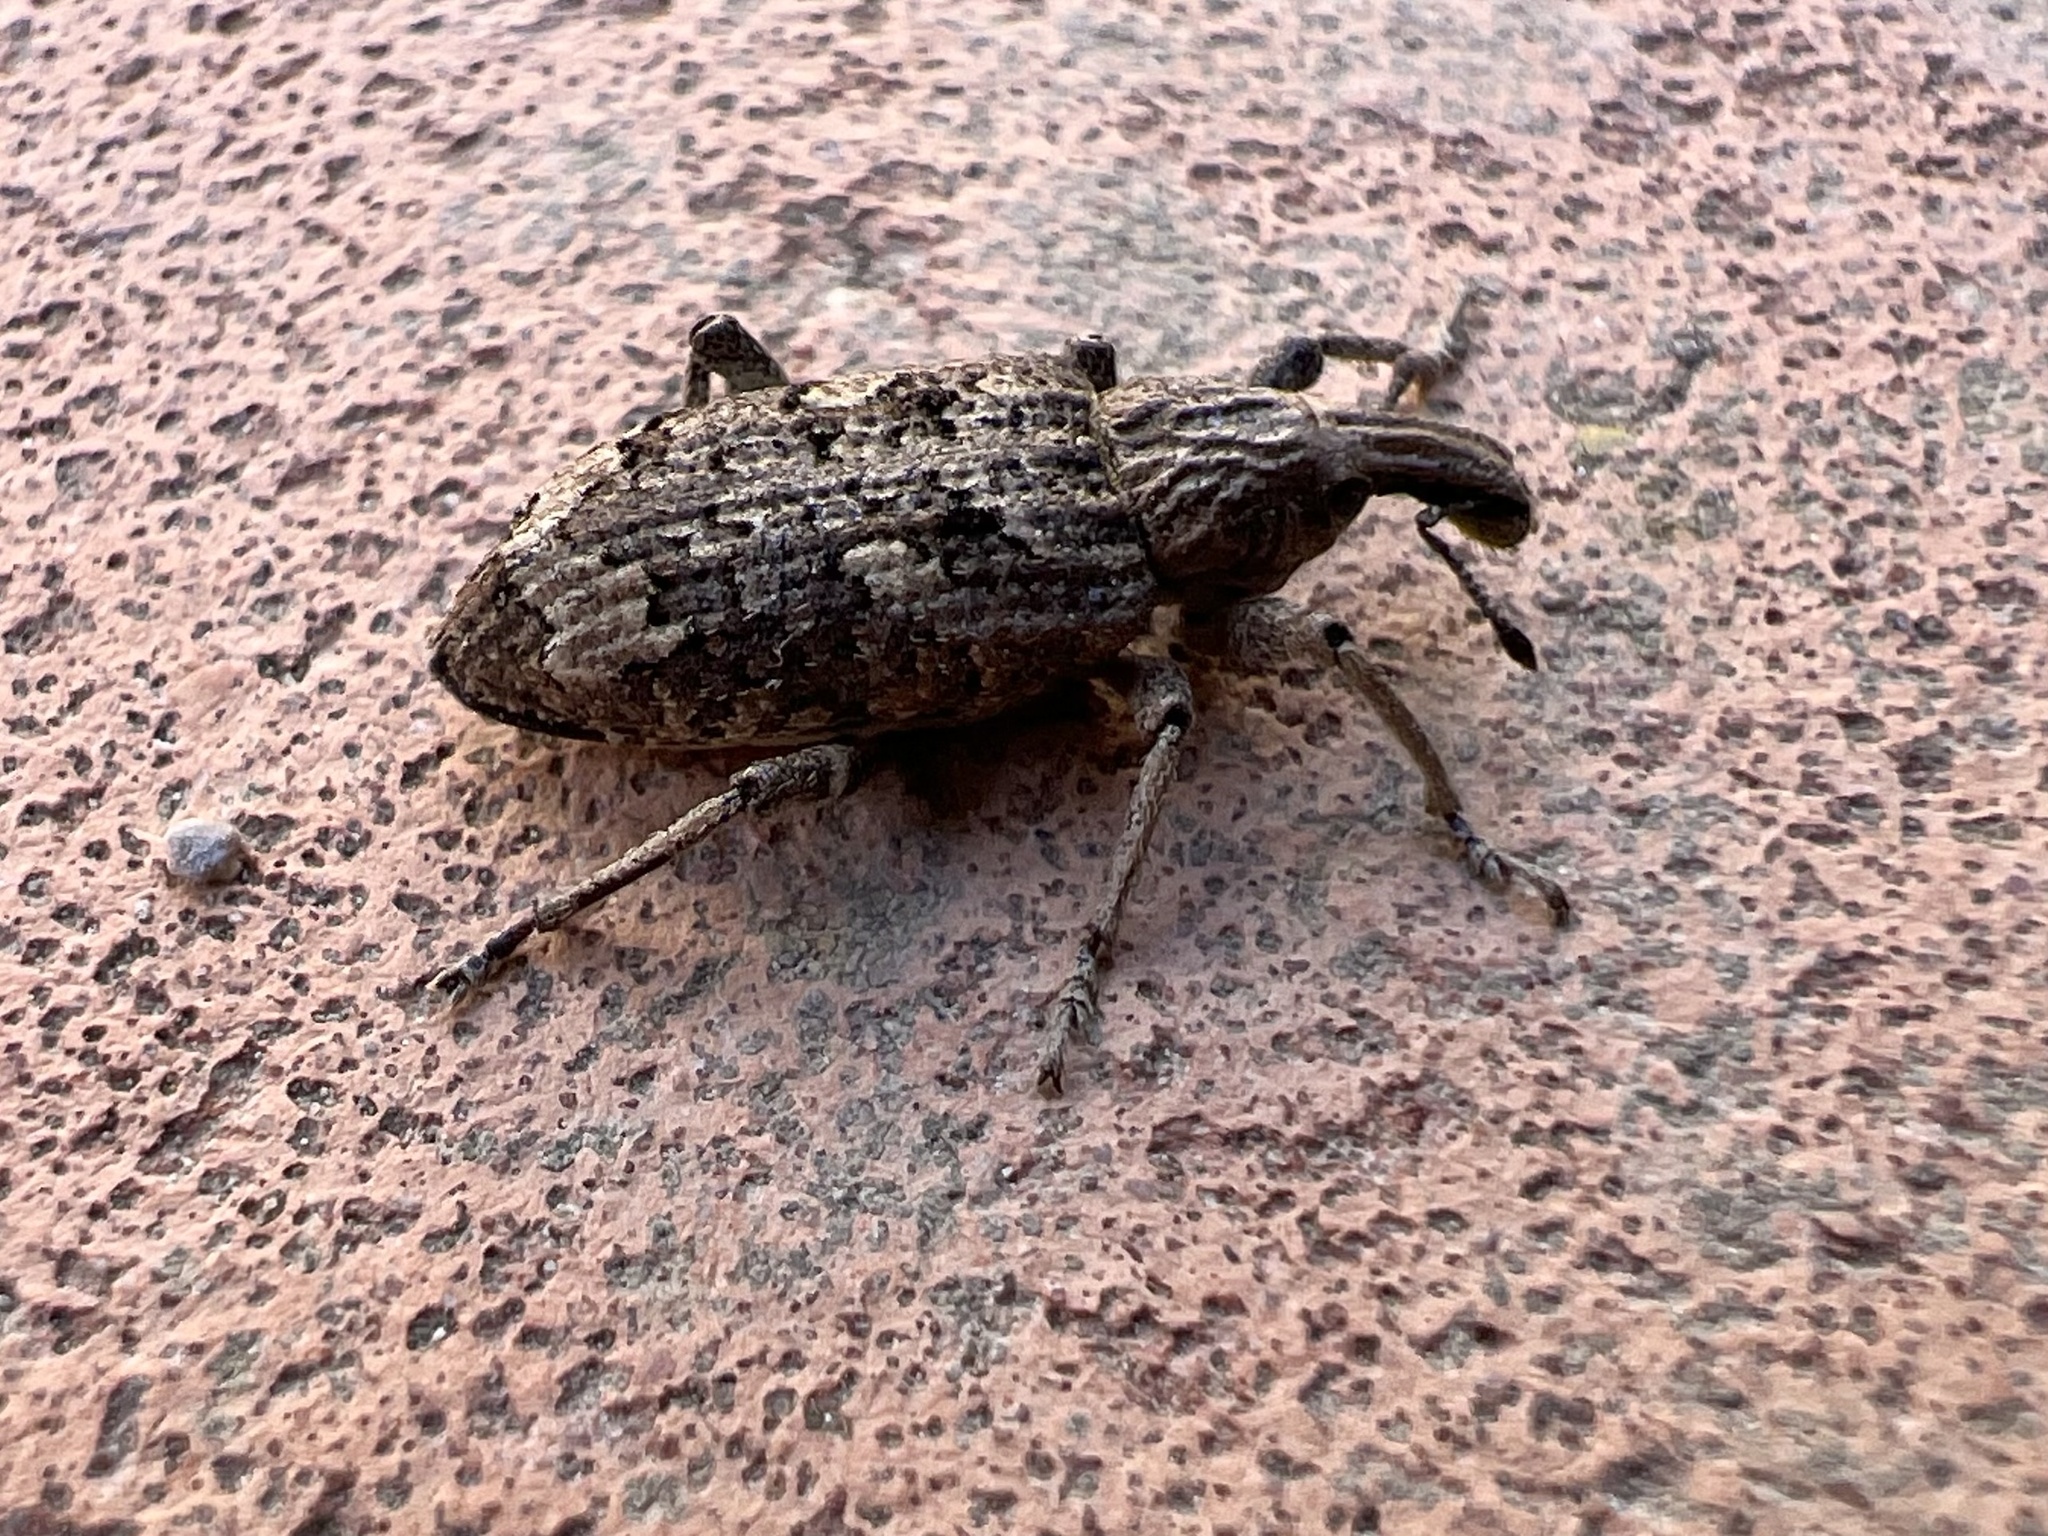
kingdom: Animalia
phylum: Arthropoda
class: Insecta
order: Coleoptera
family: Curculionidae
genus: Rhytideres
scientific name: Rhytideres plicatus
